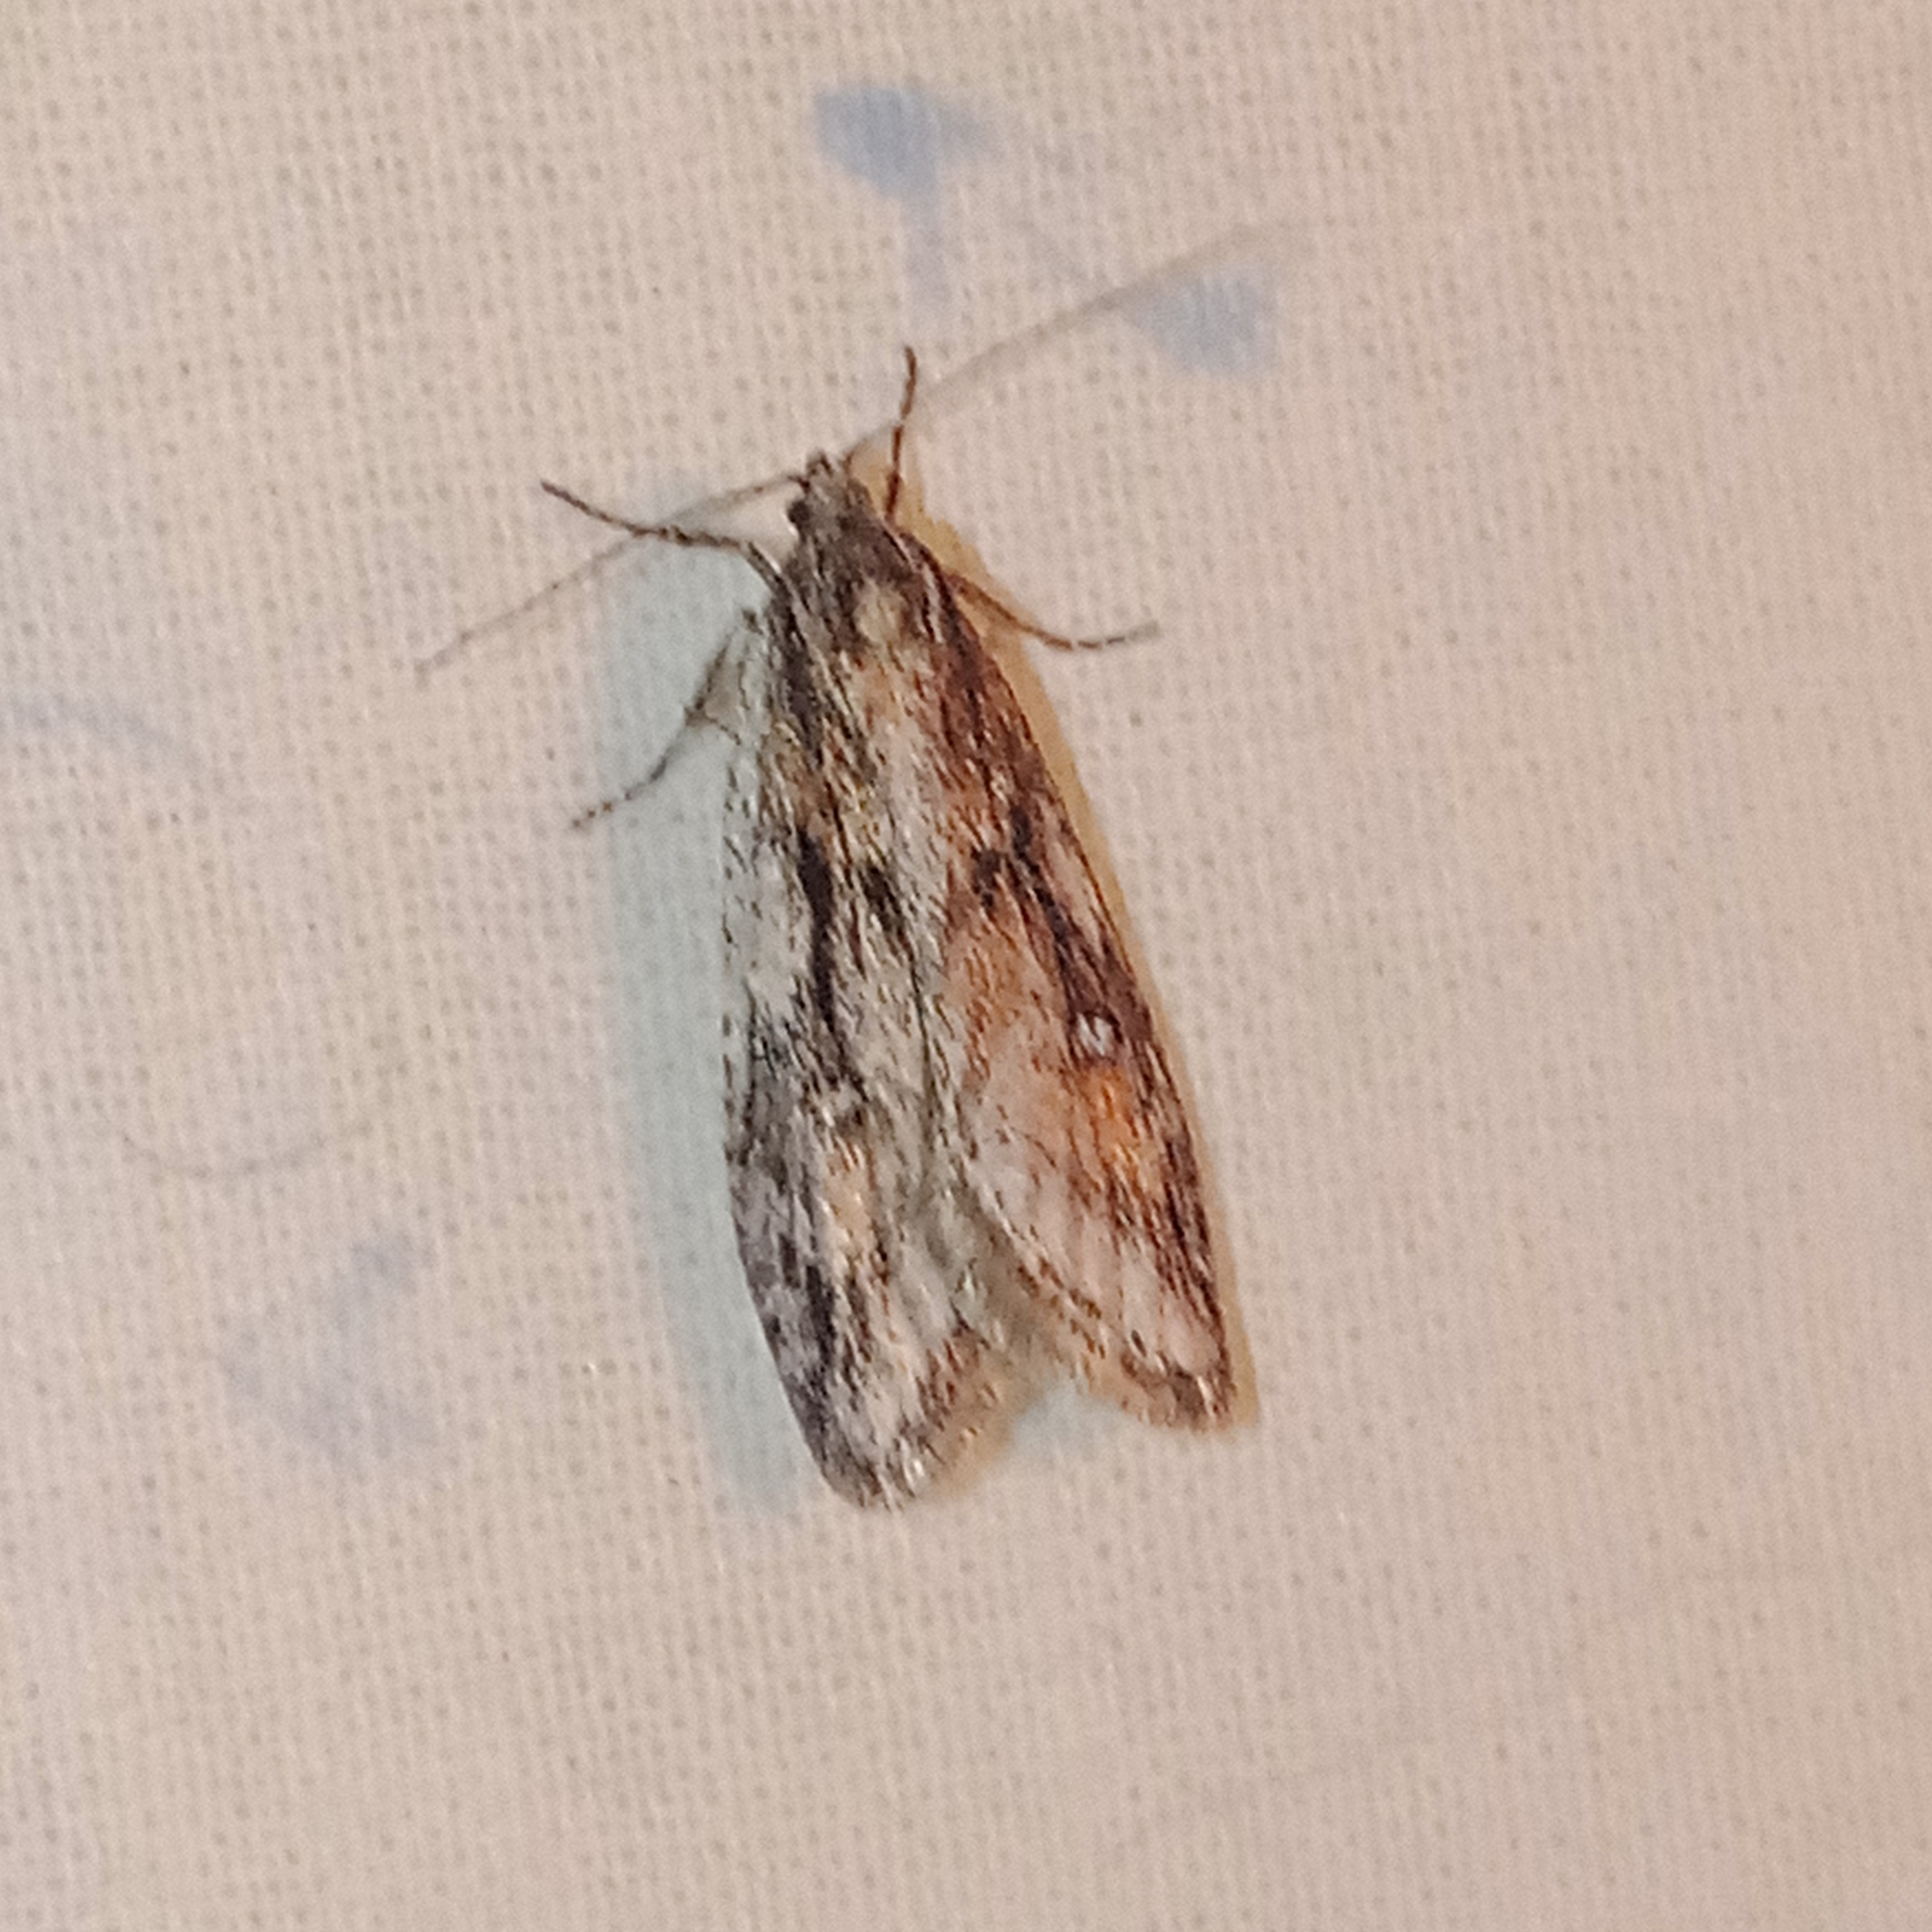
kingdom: Animalia
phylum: Arthropoda
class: Insecta
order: Lepidoptera
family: Depressariidae
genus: Semioscopis
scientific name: Semioscopis anella
